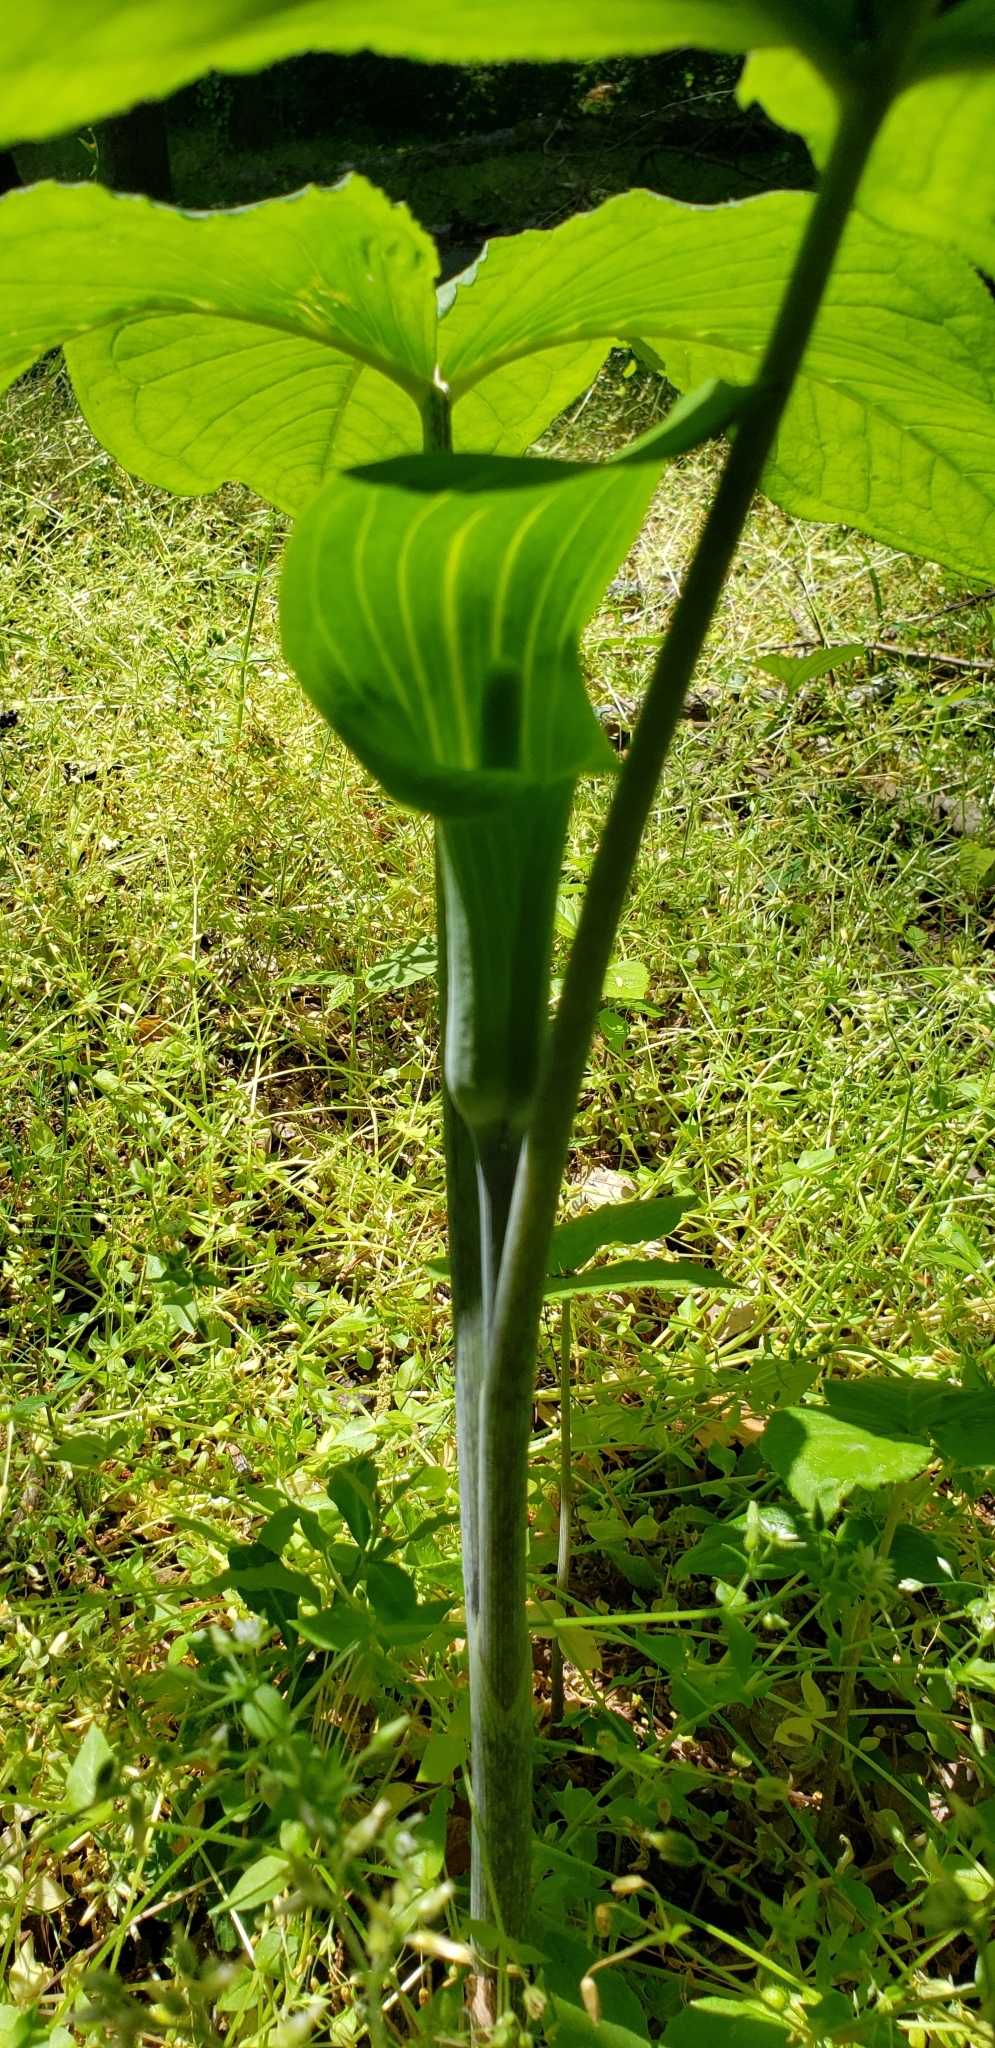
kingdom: Plantae
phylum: Tracheophyta
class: Liliopsida
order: Alismatales
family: Araceae
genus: Arisaema
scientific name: Arisaema triphyllum
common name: Jack-in-the-pulpit
